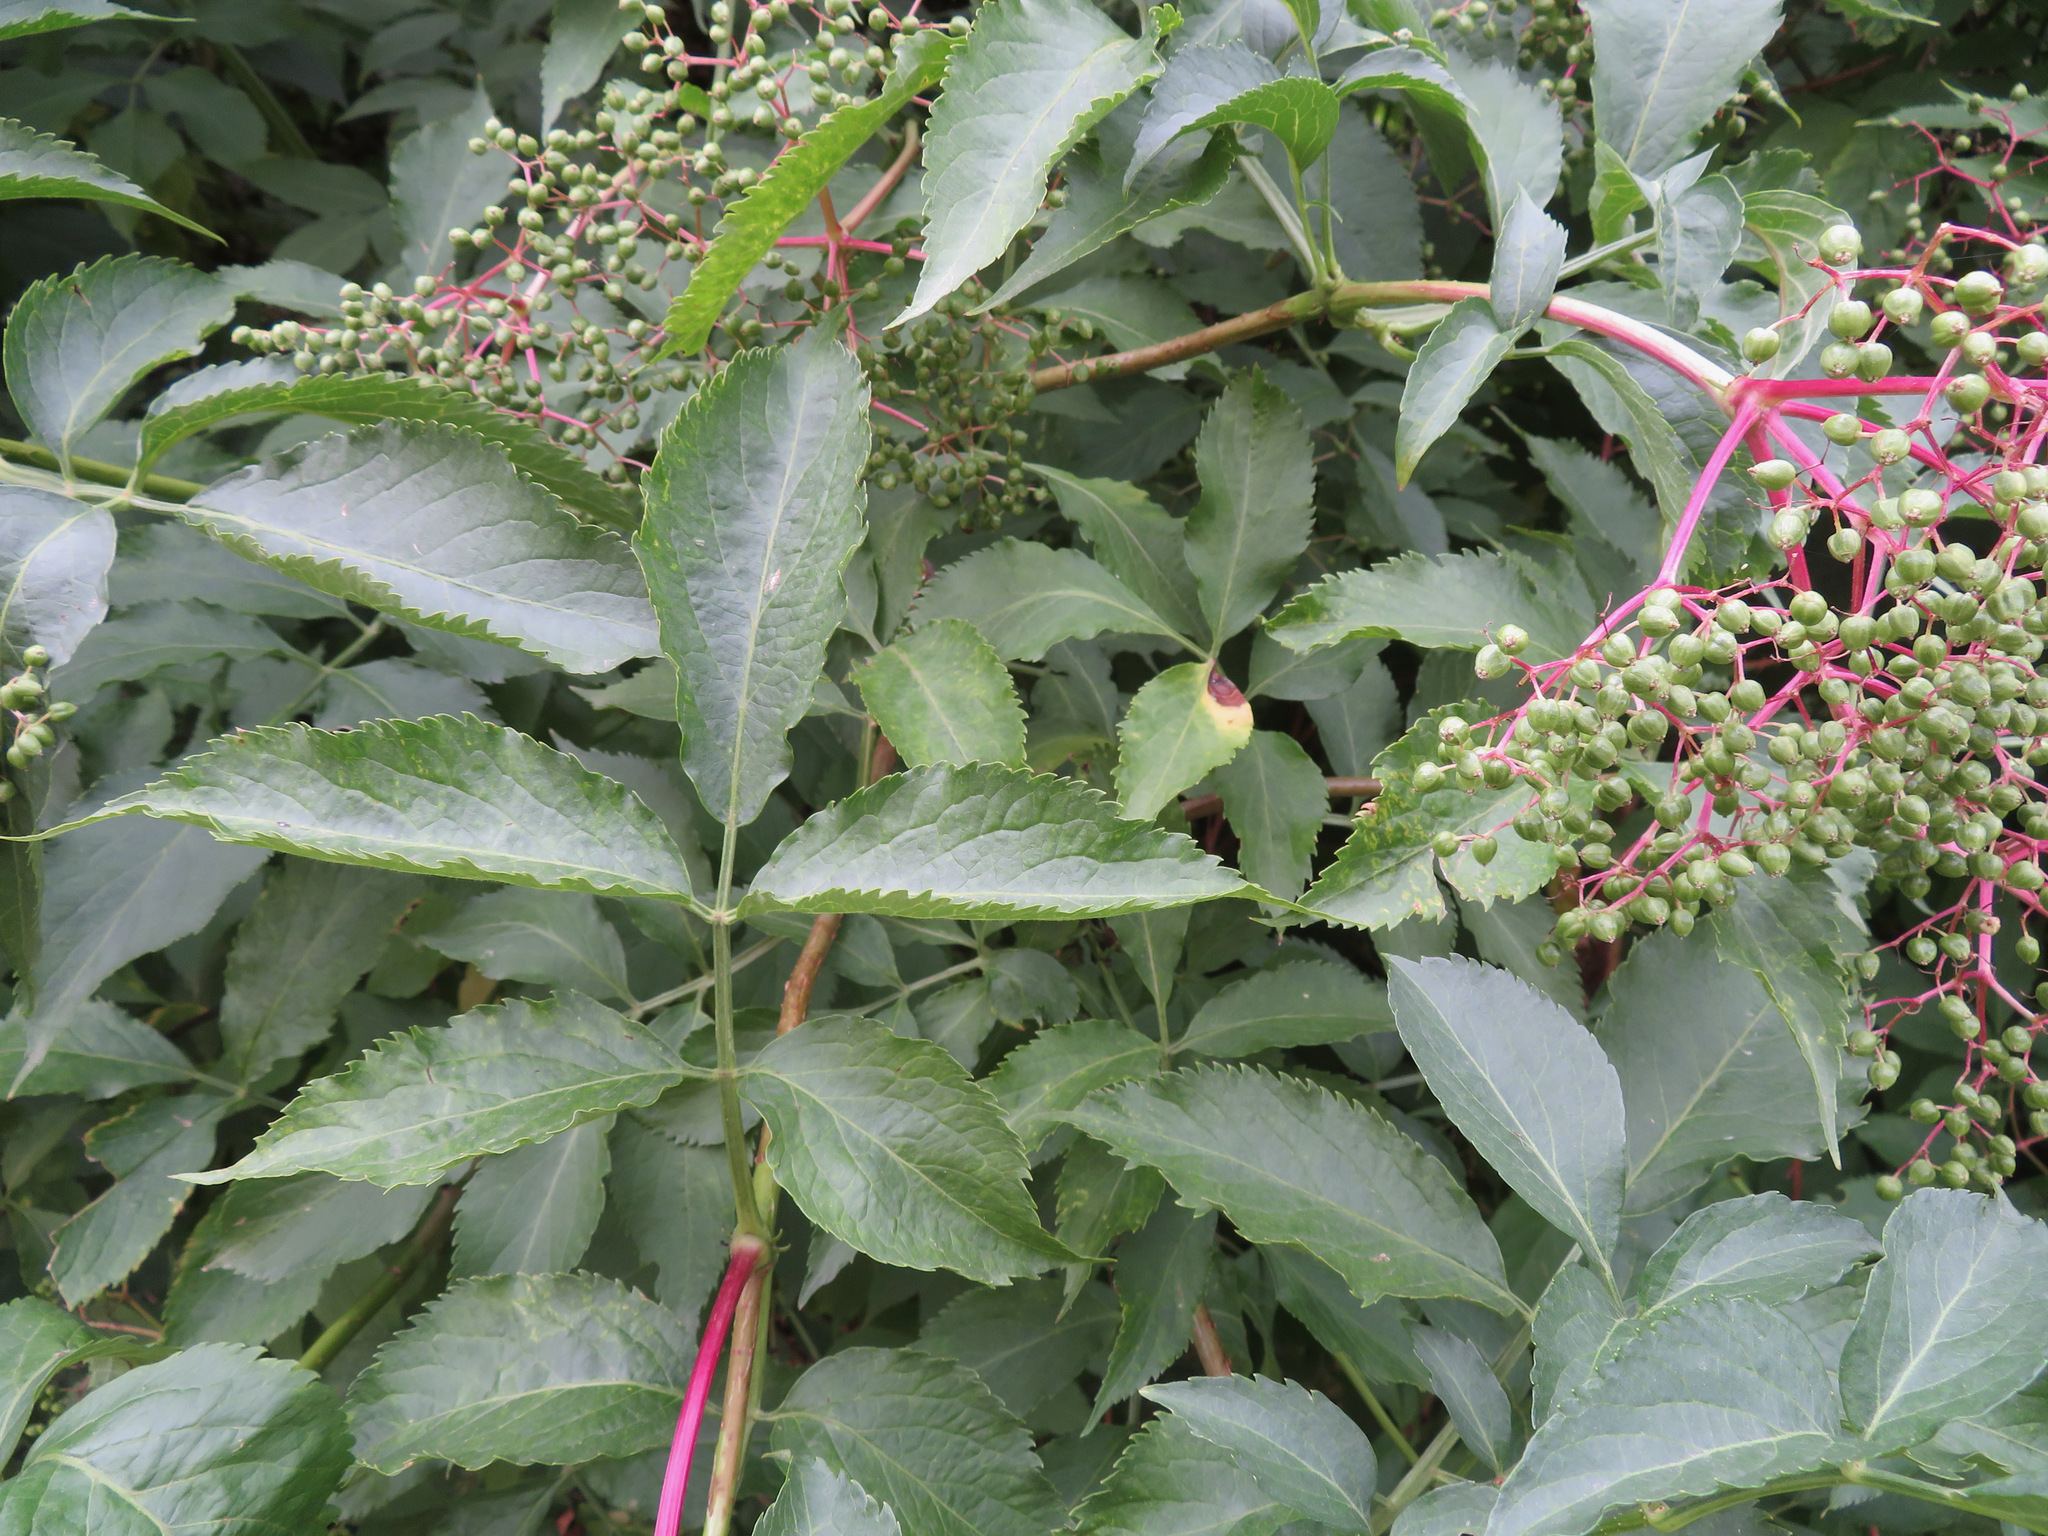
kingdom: Plantae
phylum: Tracheophyta
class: Magnoliopsida
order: Dipsacales
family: Viburnaceae
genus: Sambucus
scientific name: Sambucus nigra
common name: Elder
